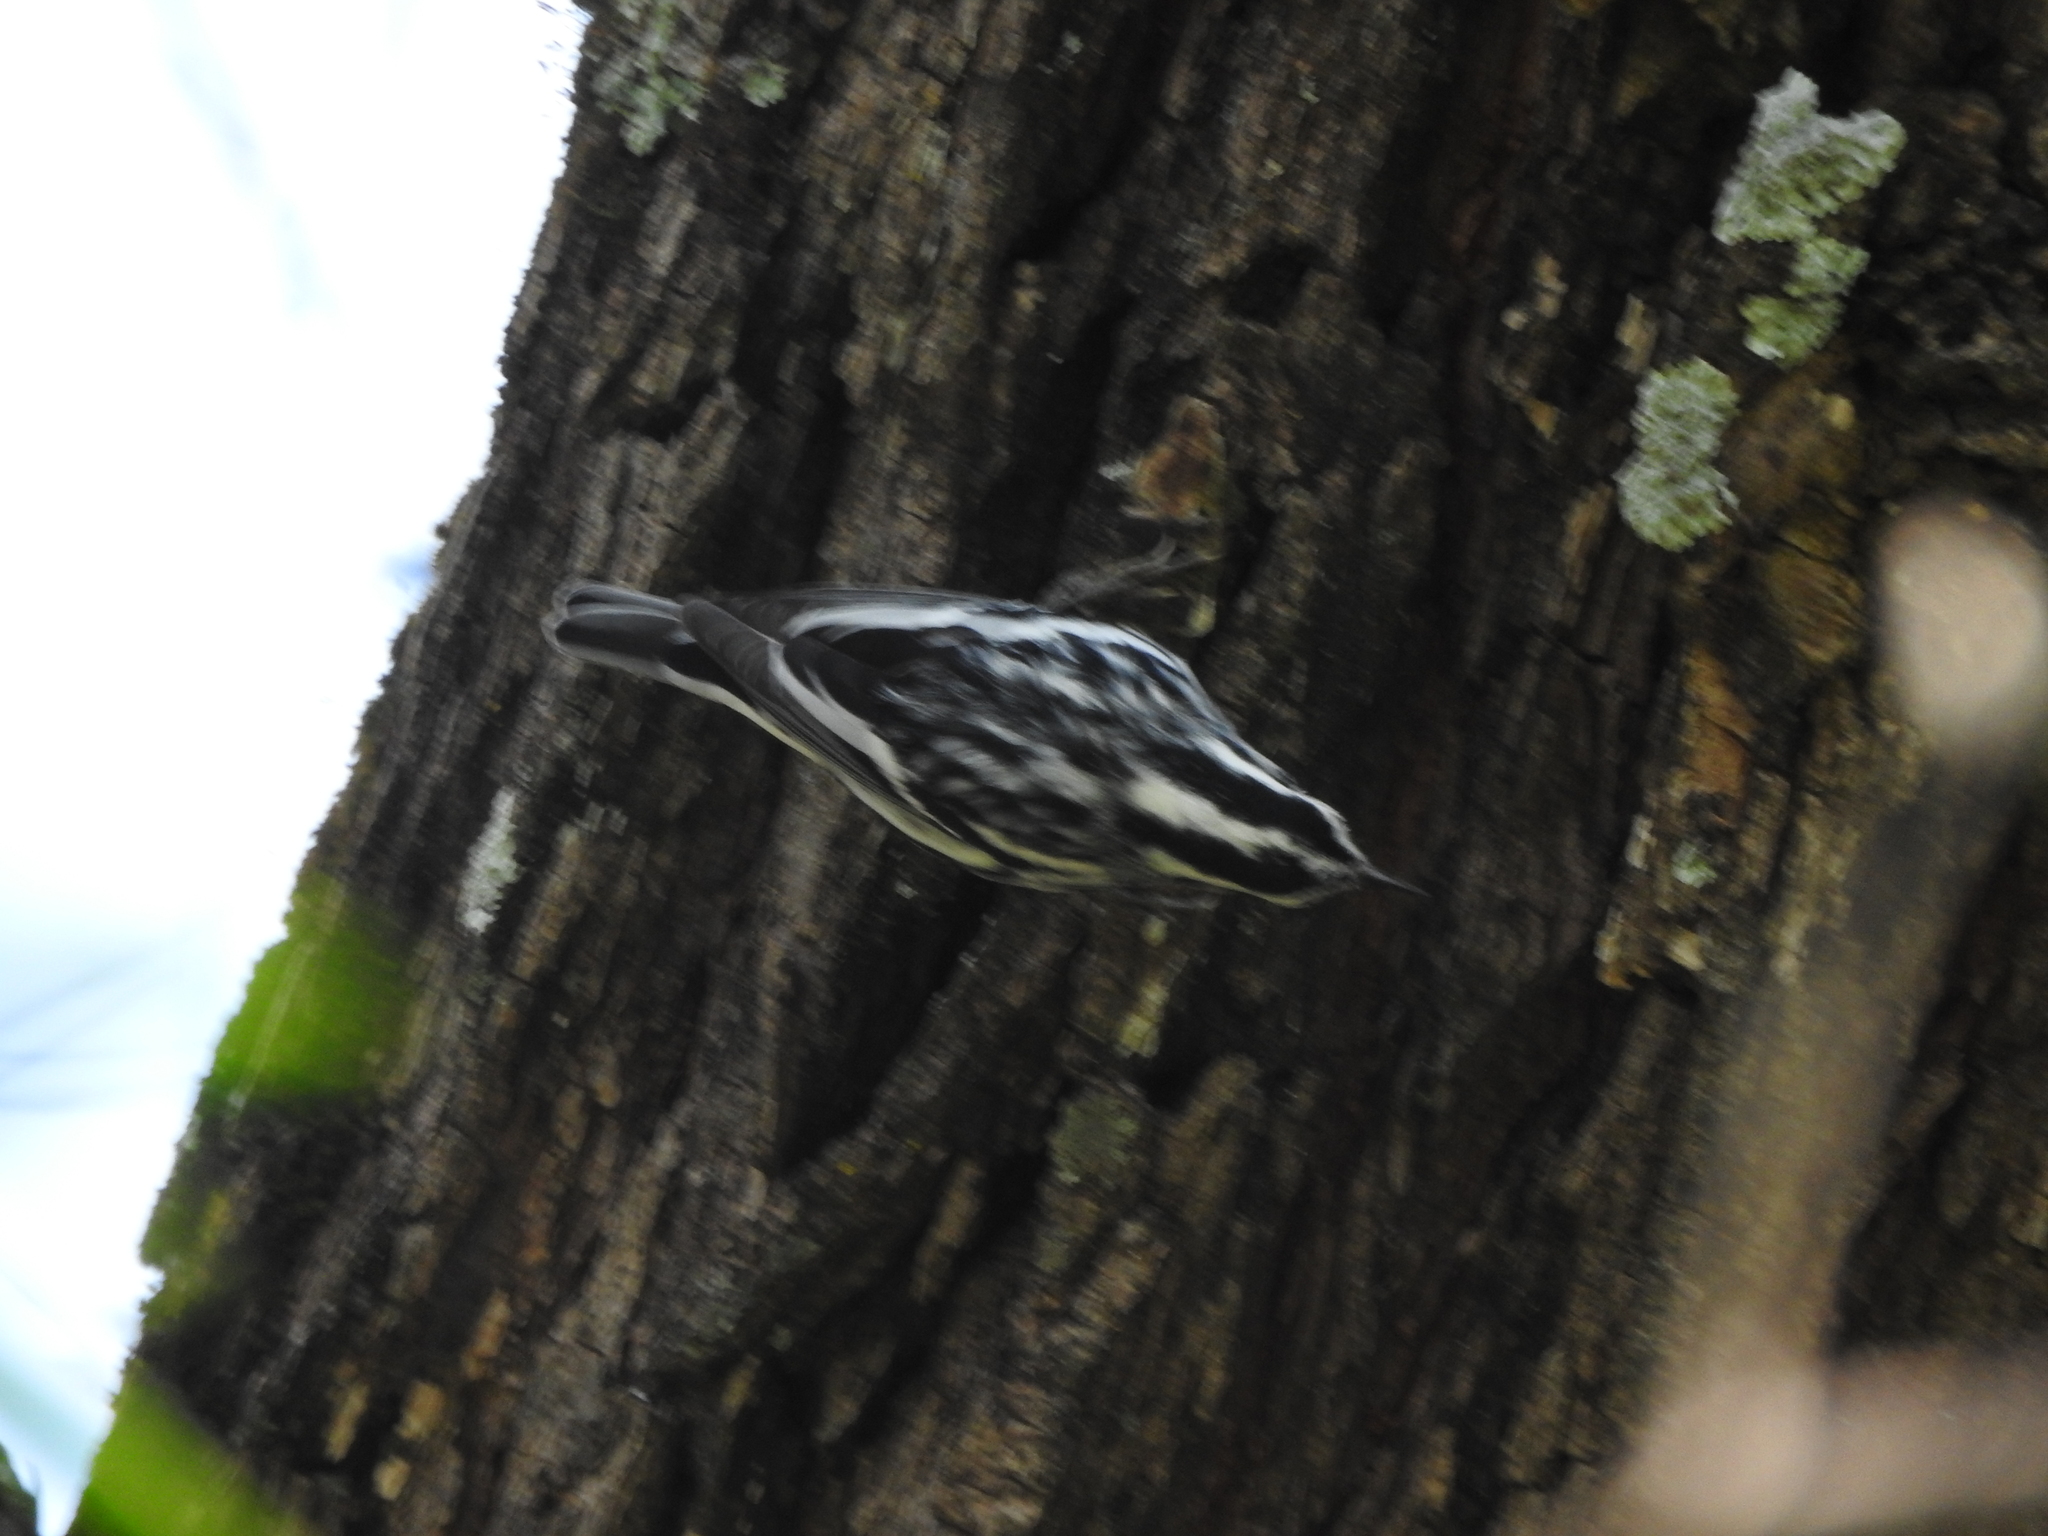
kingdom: Animalia
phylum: Chordata
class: Aves
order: Passeriformes
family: Parulidae
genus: Mniotilta
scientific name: Mniotilta varia
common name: Black-and-white warbler
